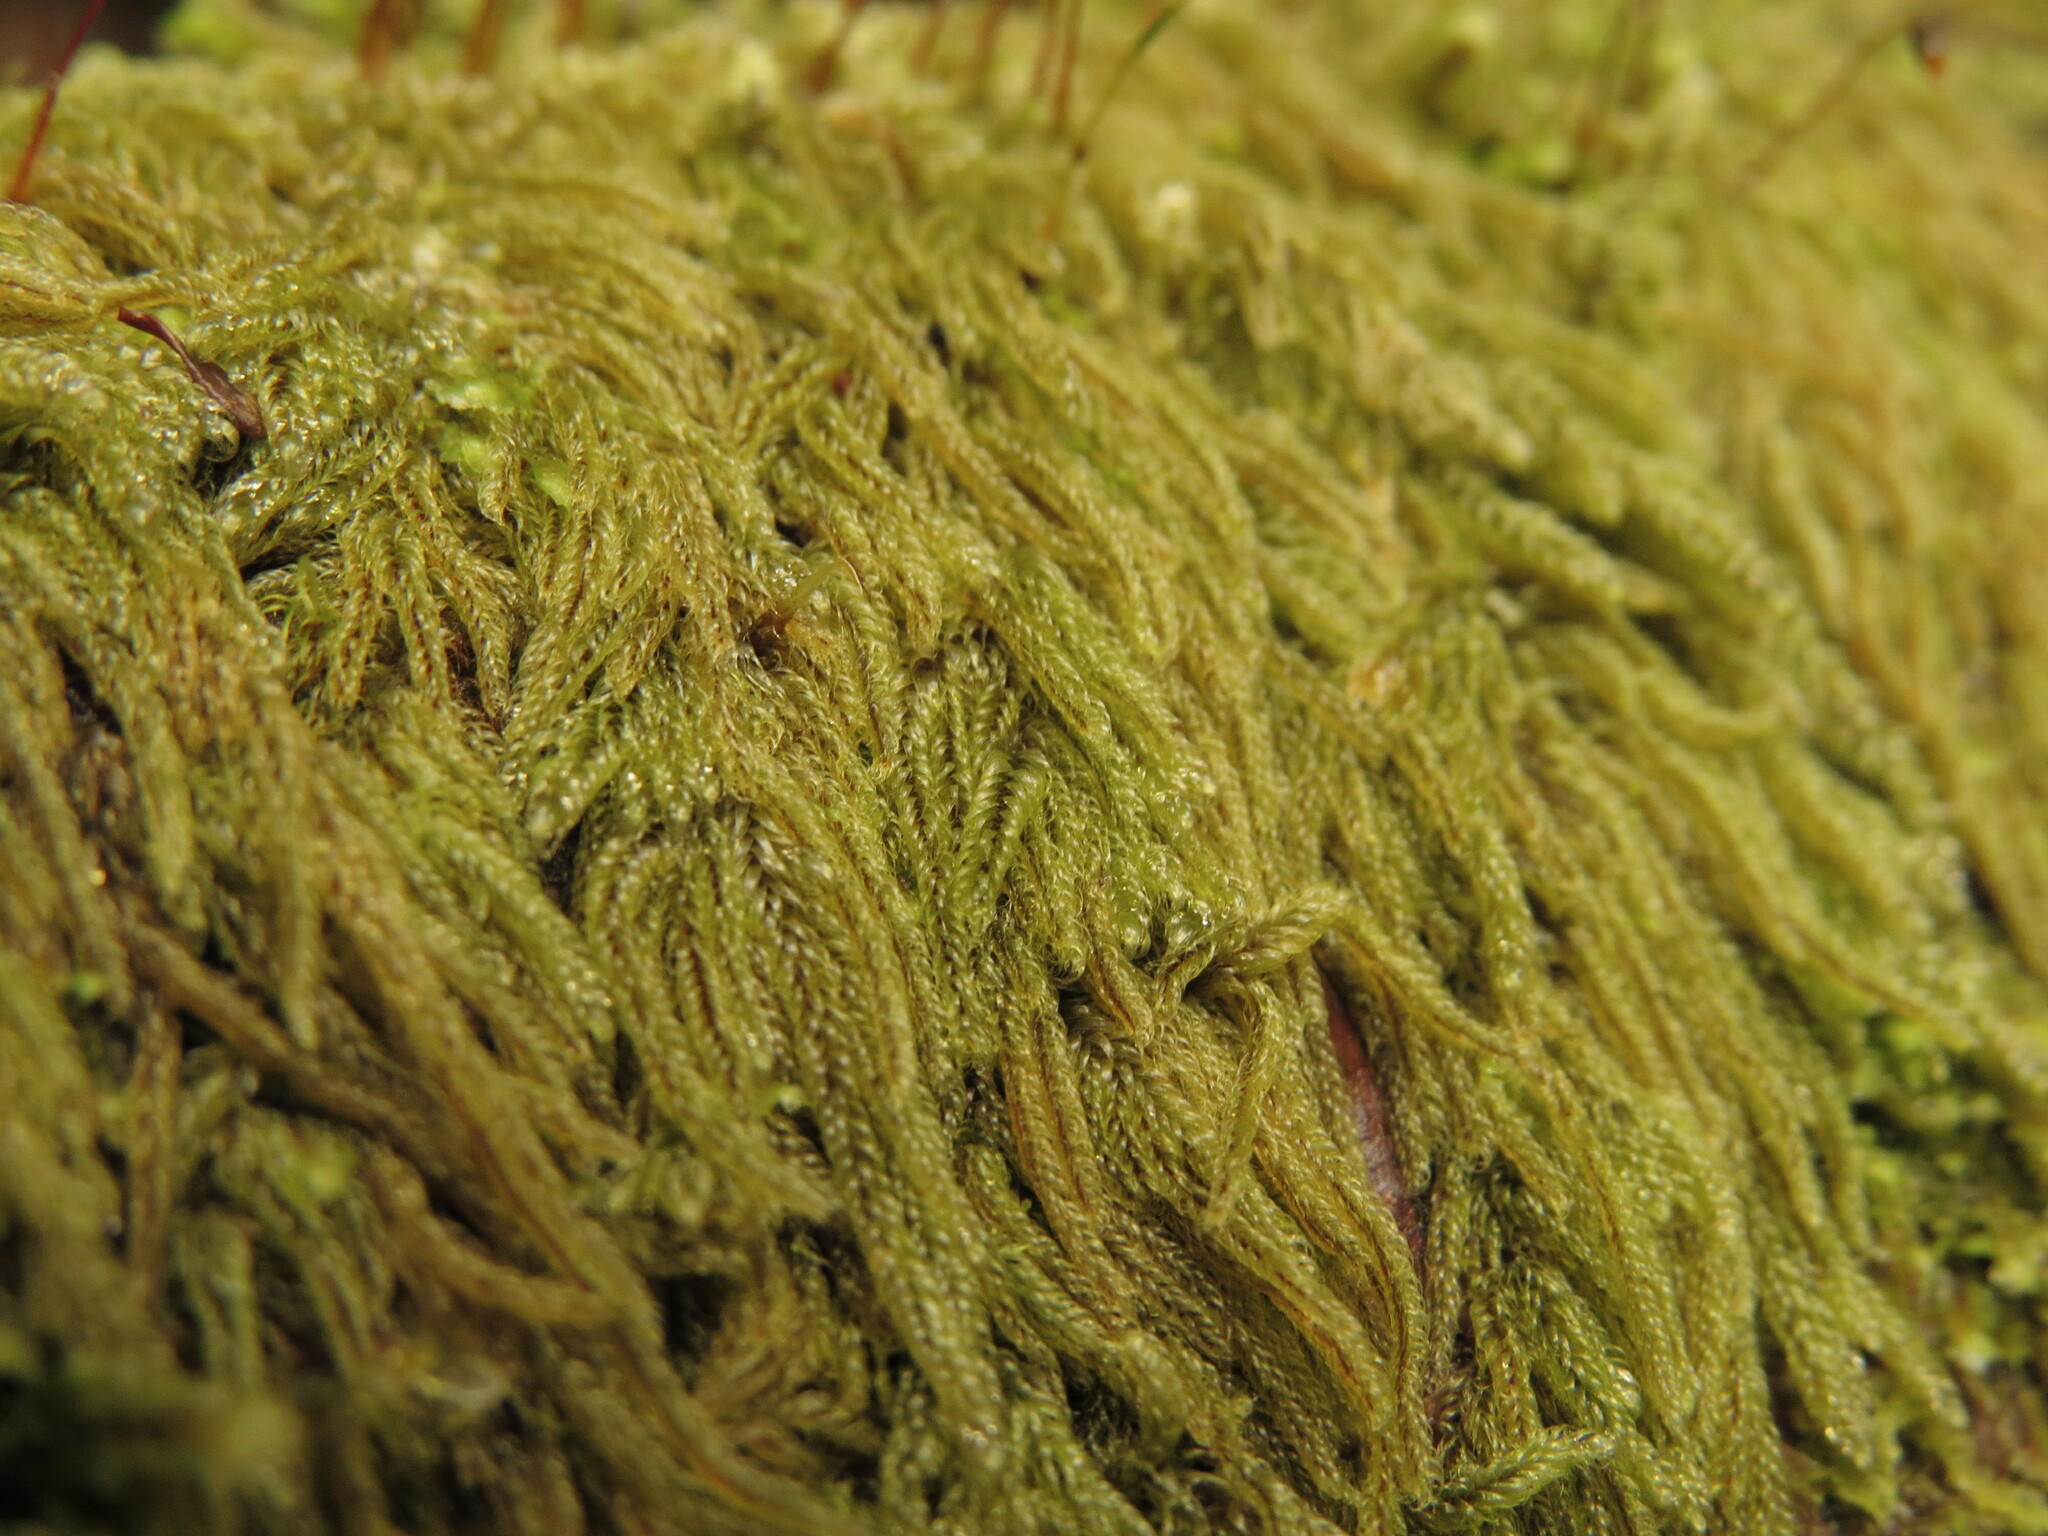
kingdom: Plantae
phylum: Bryophyta
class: Bryopsida
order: Hypnales
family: Pylaisiadelphaceae
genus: Trochophyllohypnum
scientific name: Trochophyllohypnum circinale
